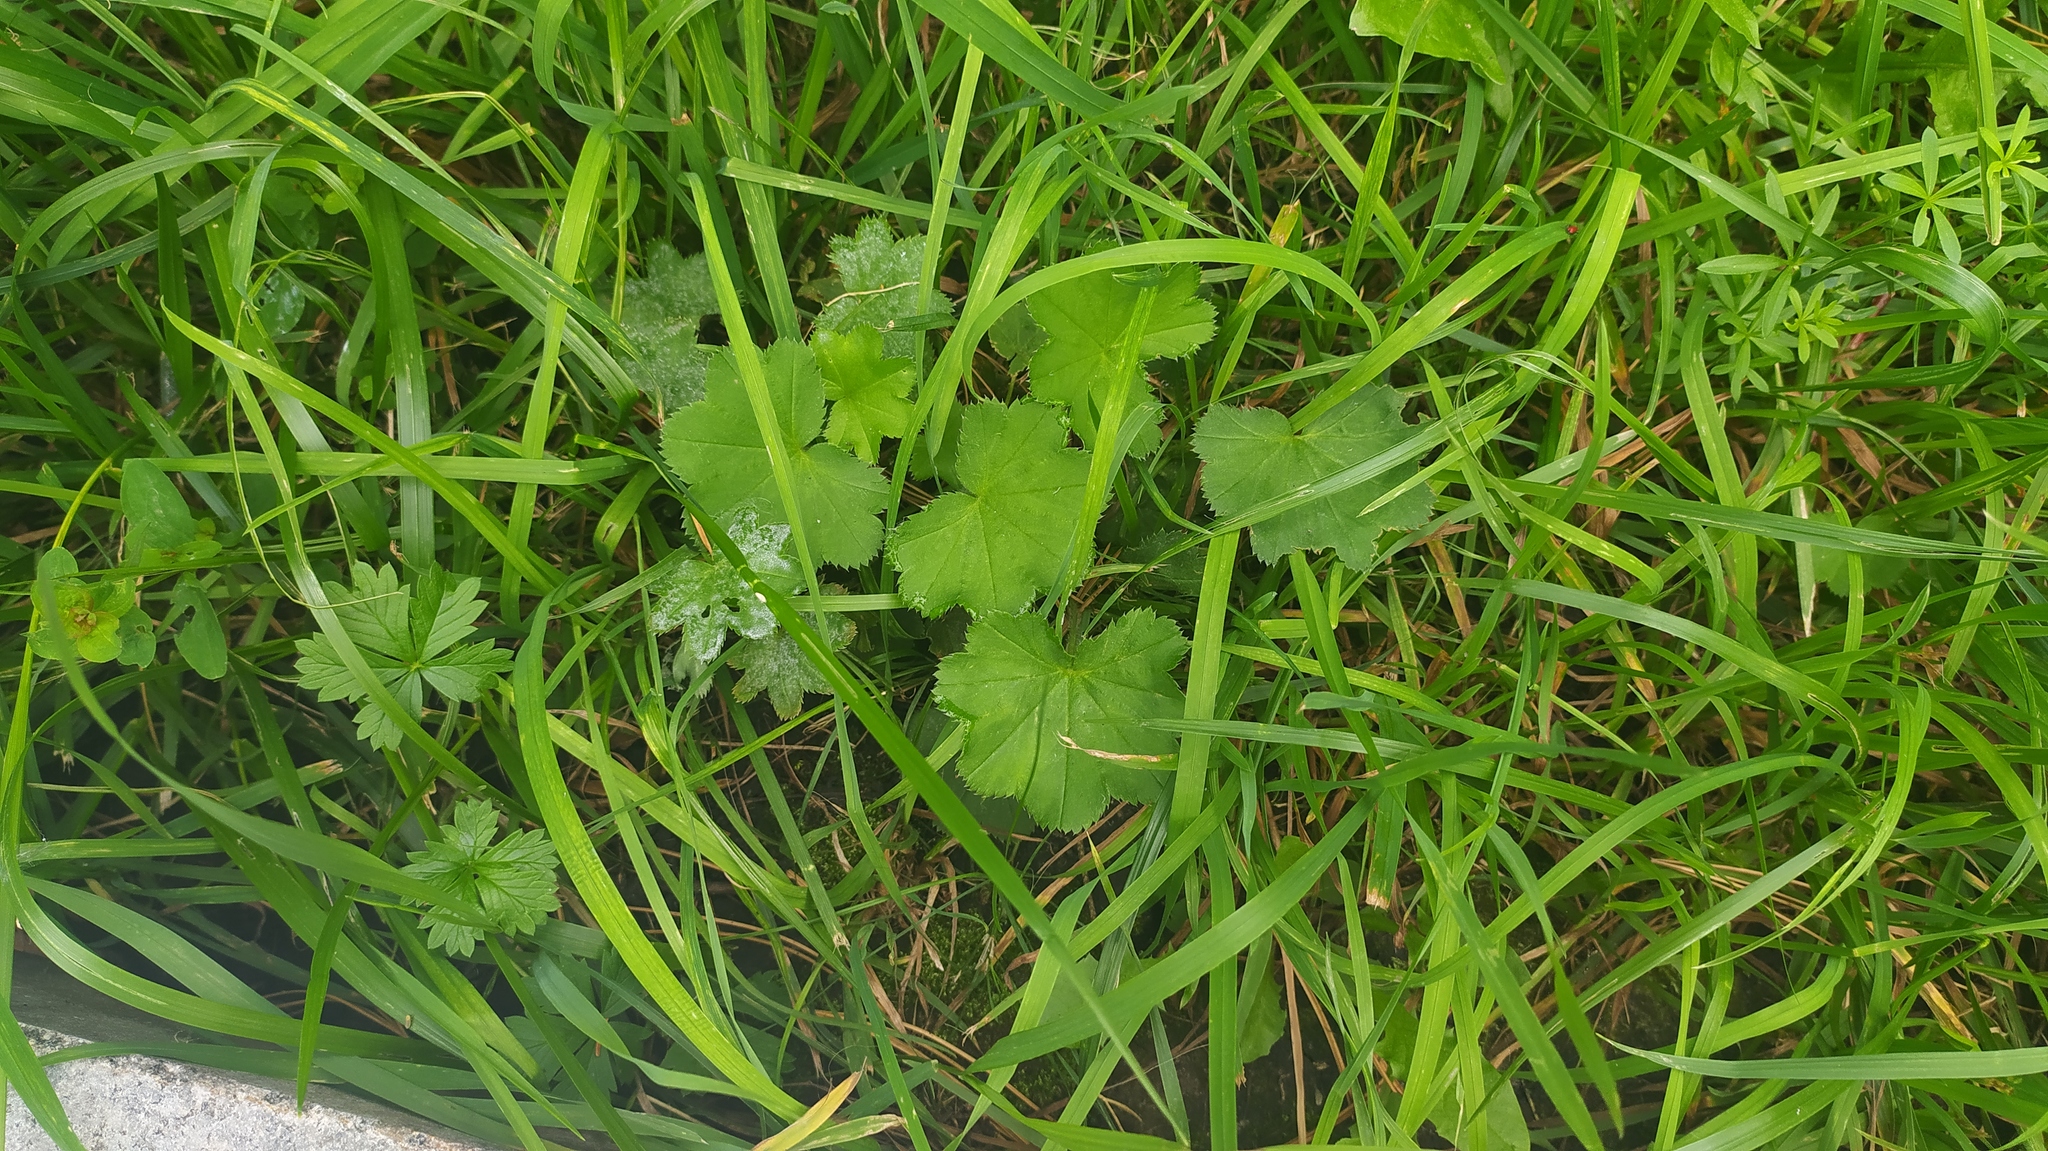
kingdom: Plantae
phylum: Tracheophyta
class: Magnoliopsida
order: Rosales
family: Rosaceae
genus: Alchemilla
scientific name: Alchemilla
